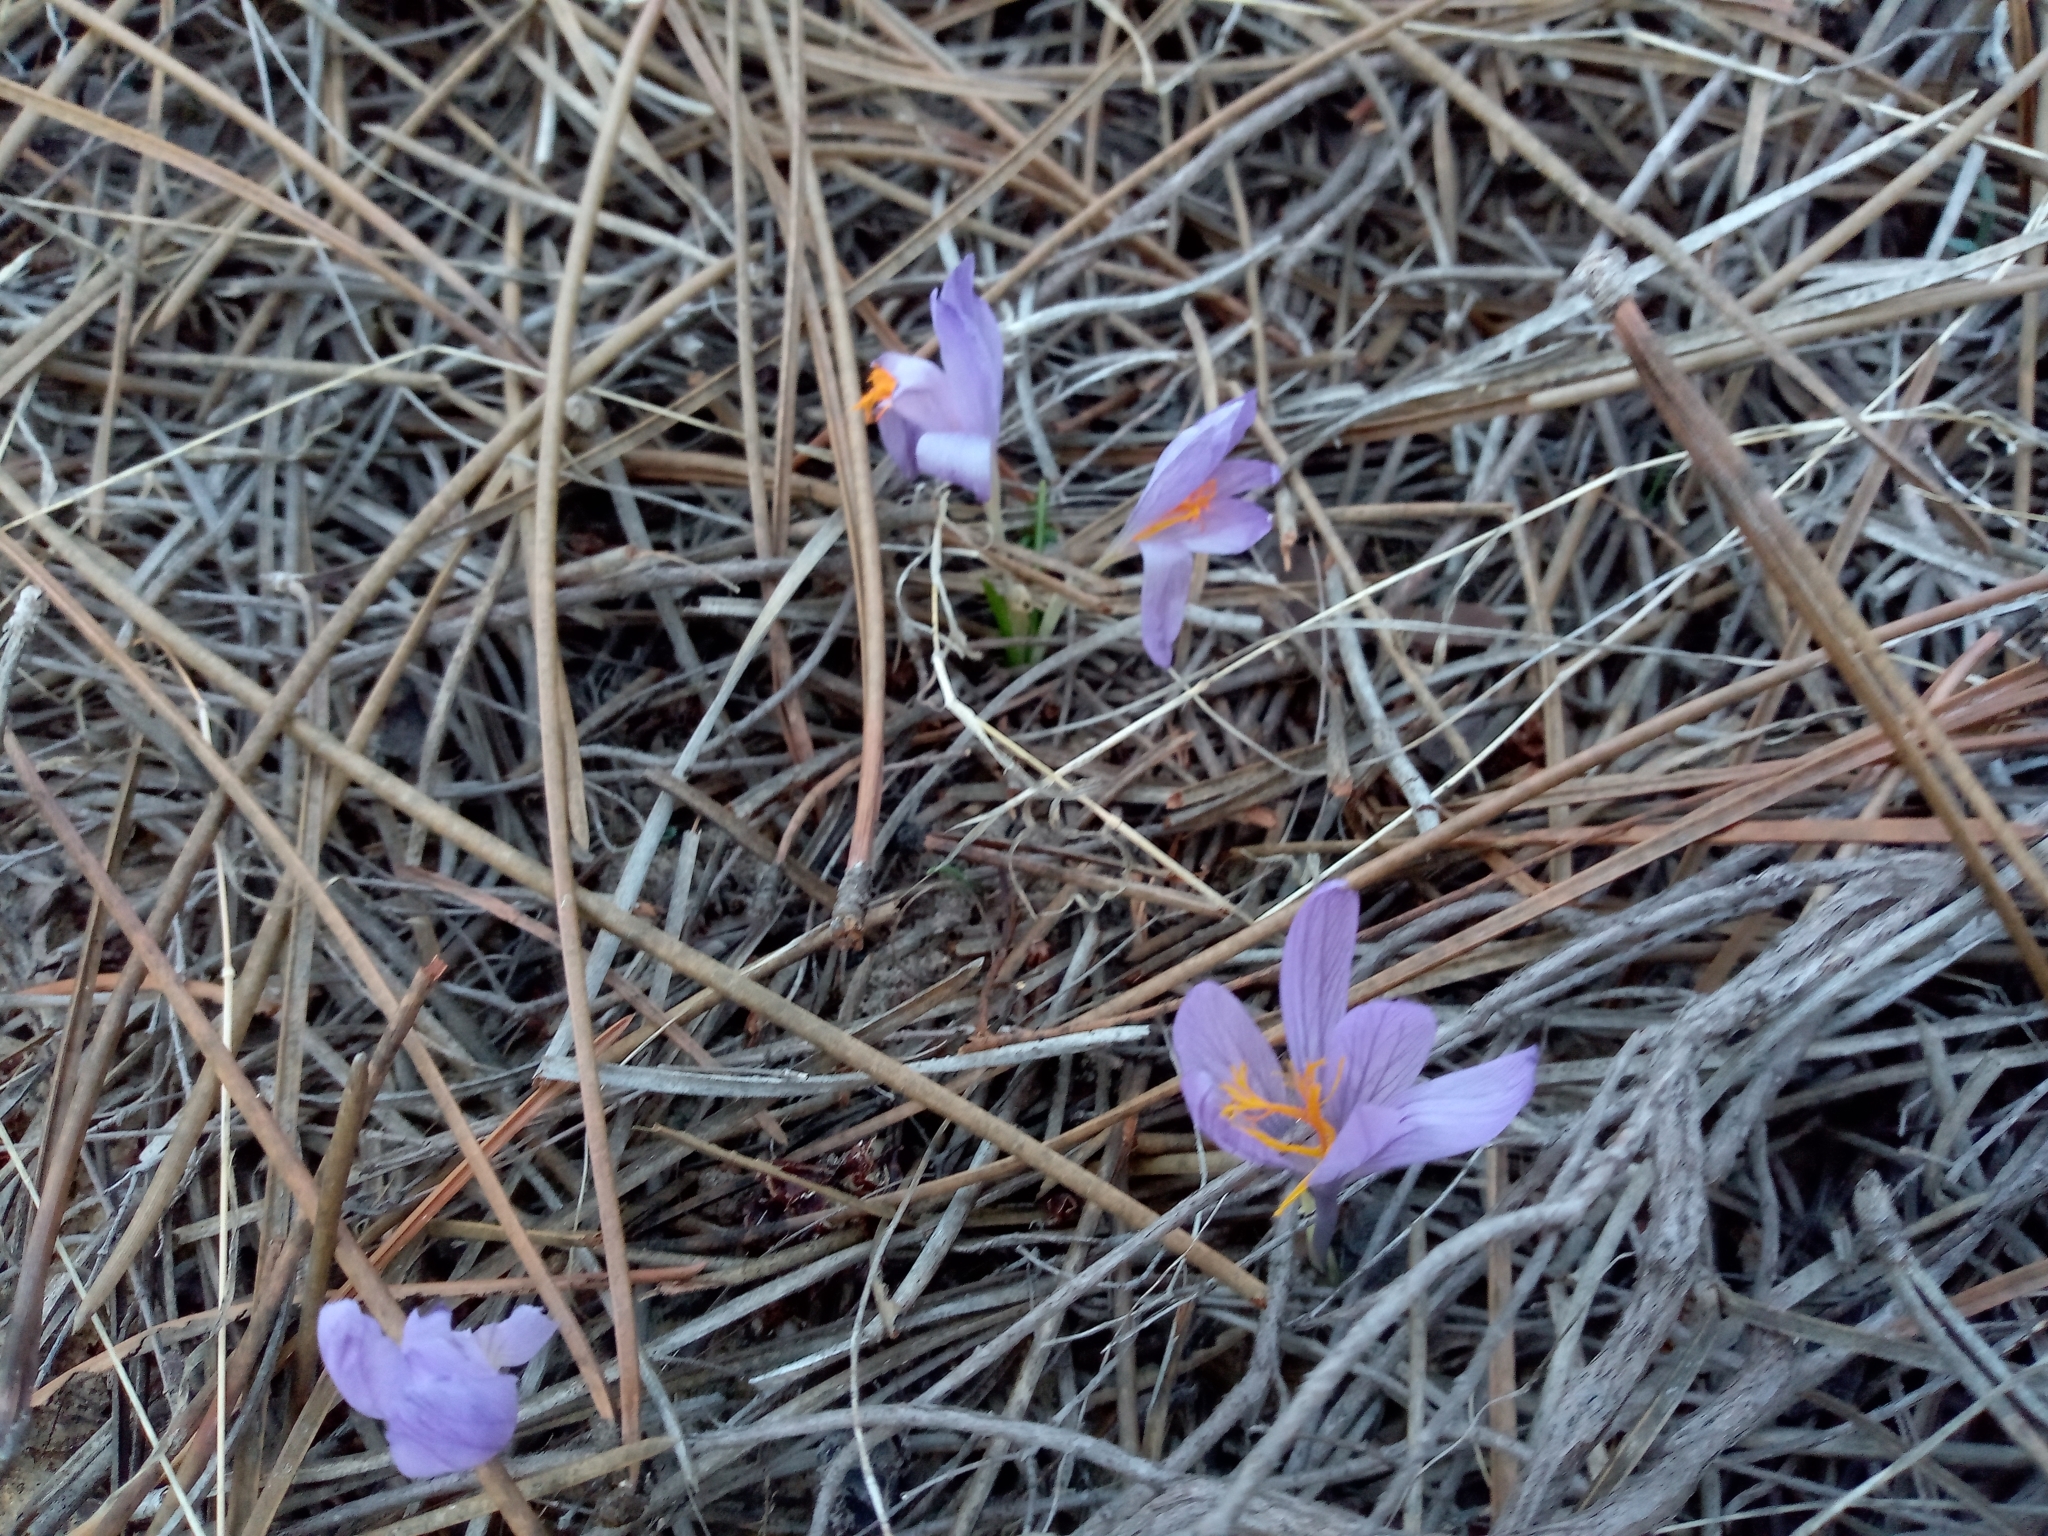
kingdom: Plantae
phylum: Tracheophyta
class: Liliopsida
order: Asparagales
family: Iridaceae
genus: Crocus
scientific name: Crocus serotinus
